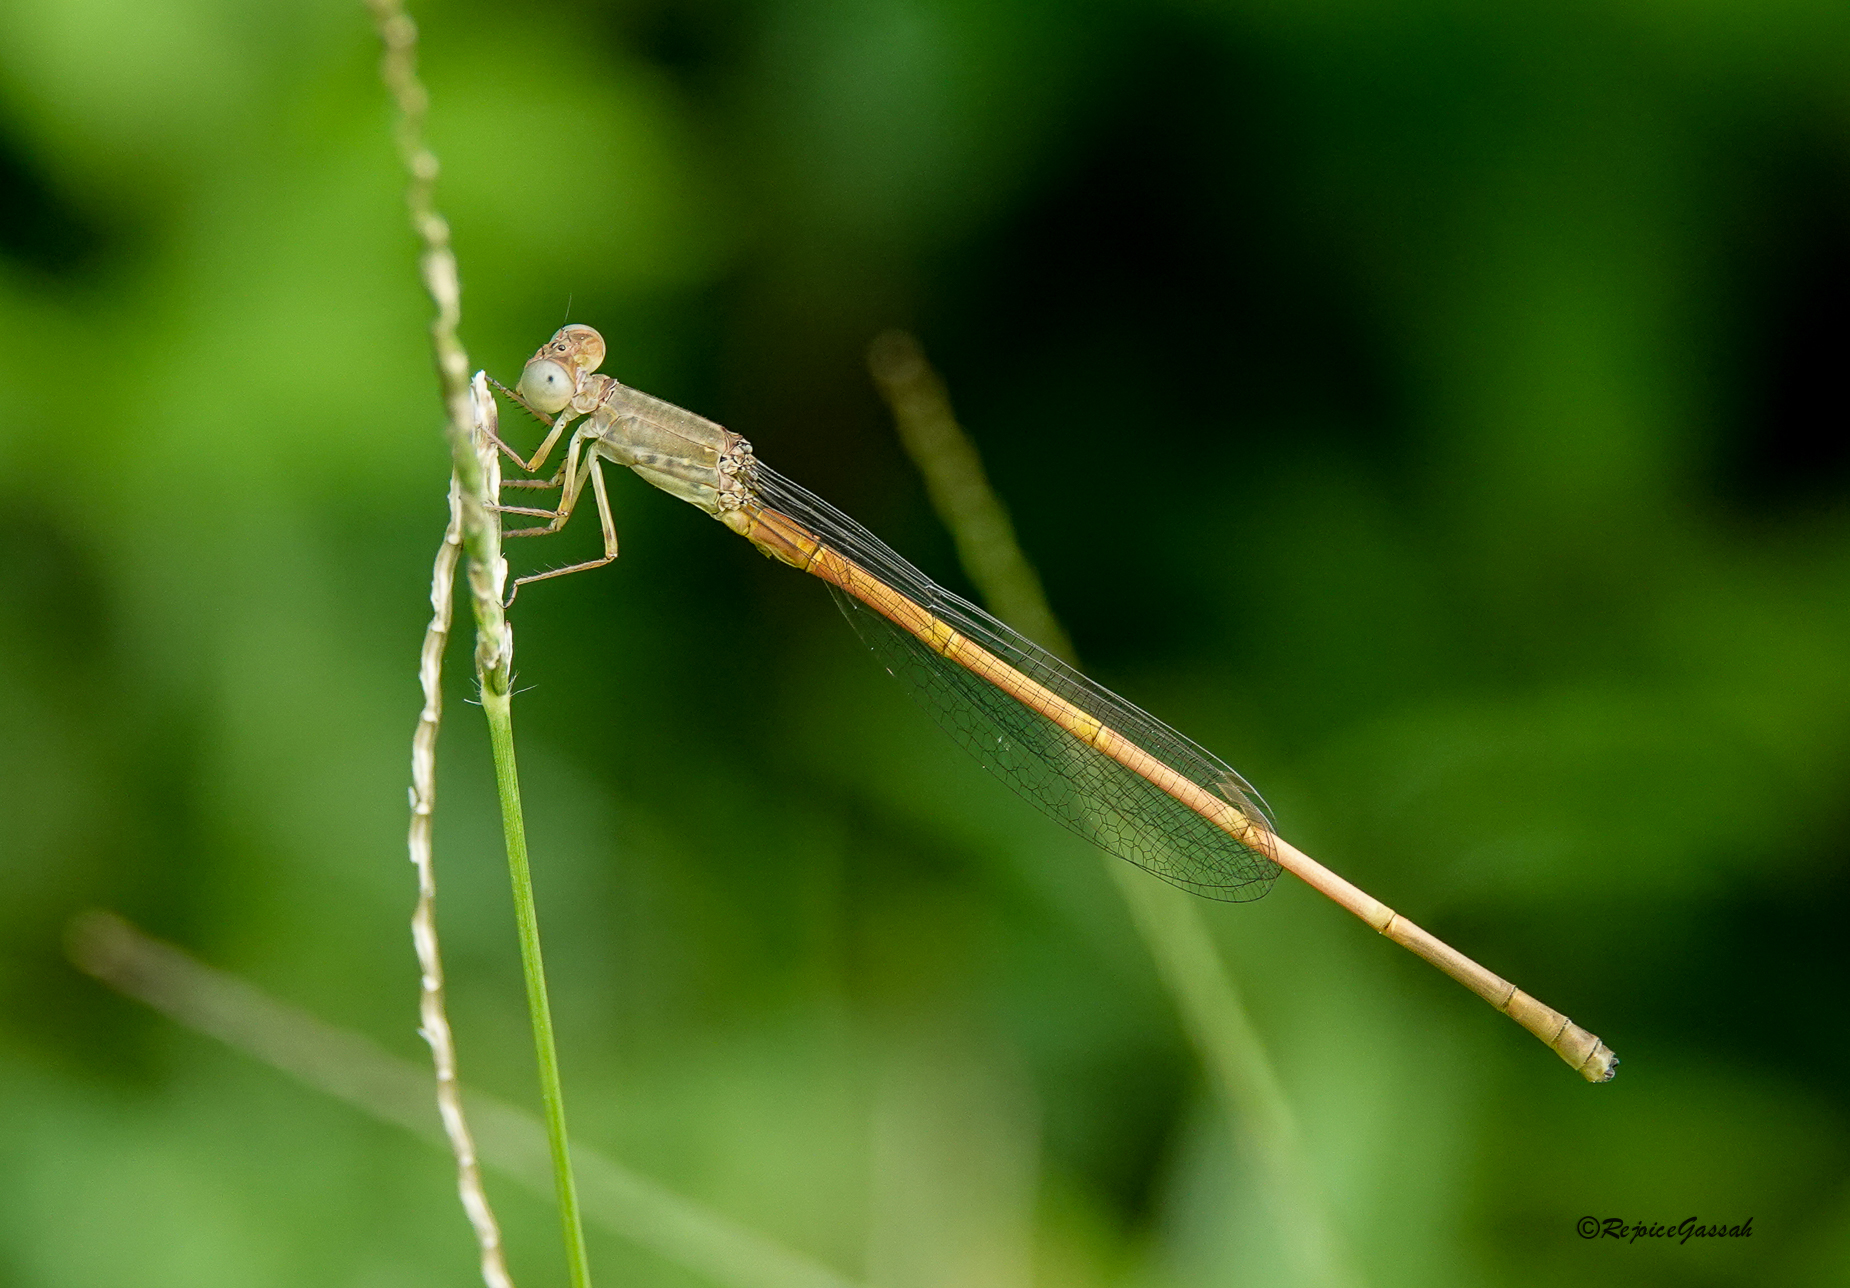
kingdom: Animalia
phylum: Arthropoda
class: Insecta
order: Odonata
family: Coenagrionidae
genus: Ceriagrion
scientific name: Ceriagrion coromandelianum
